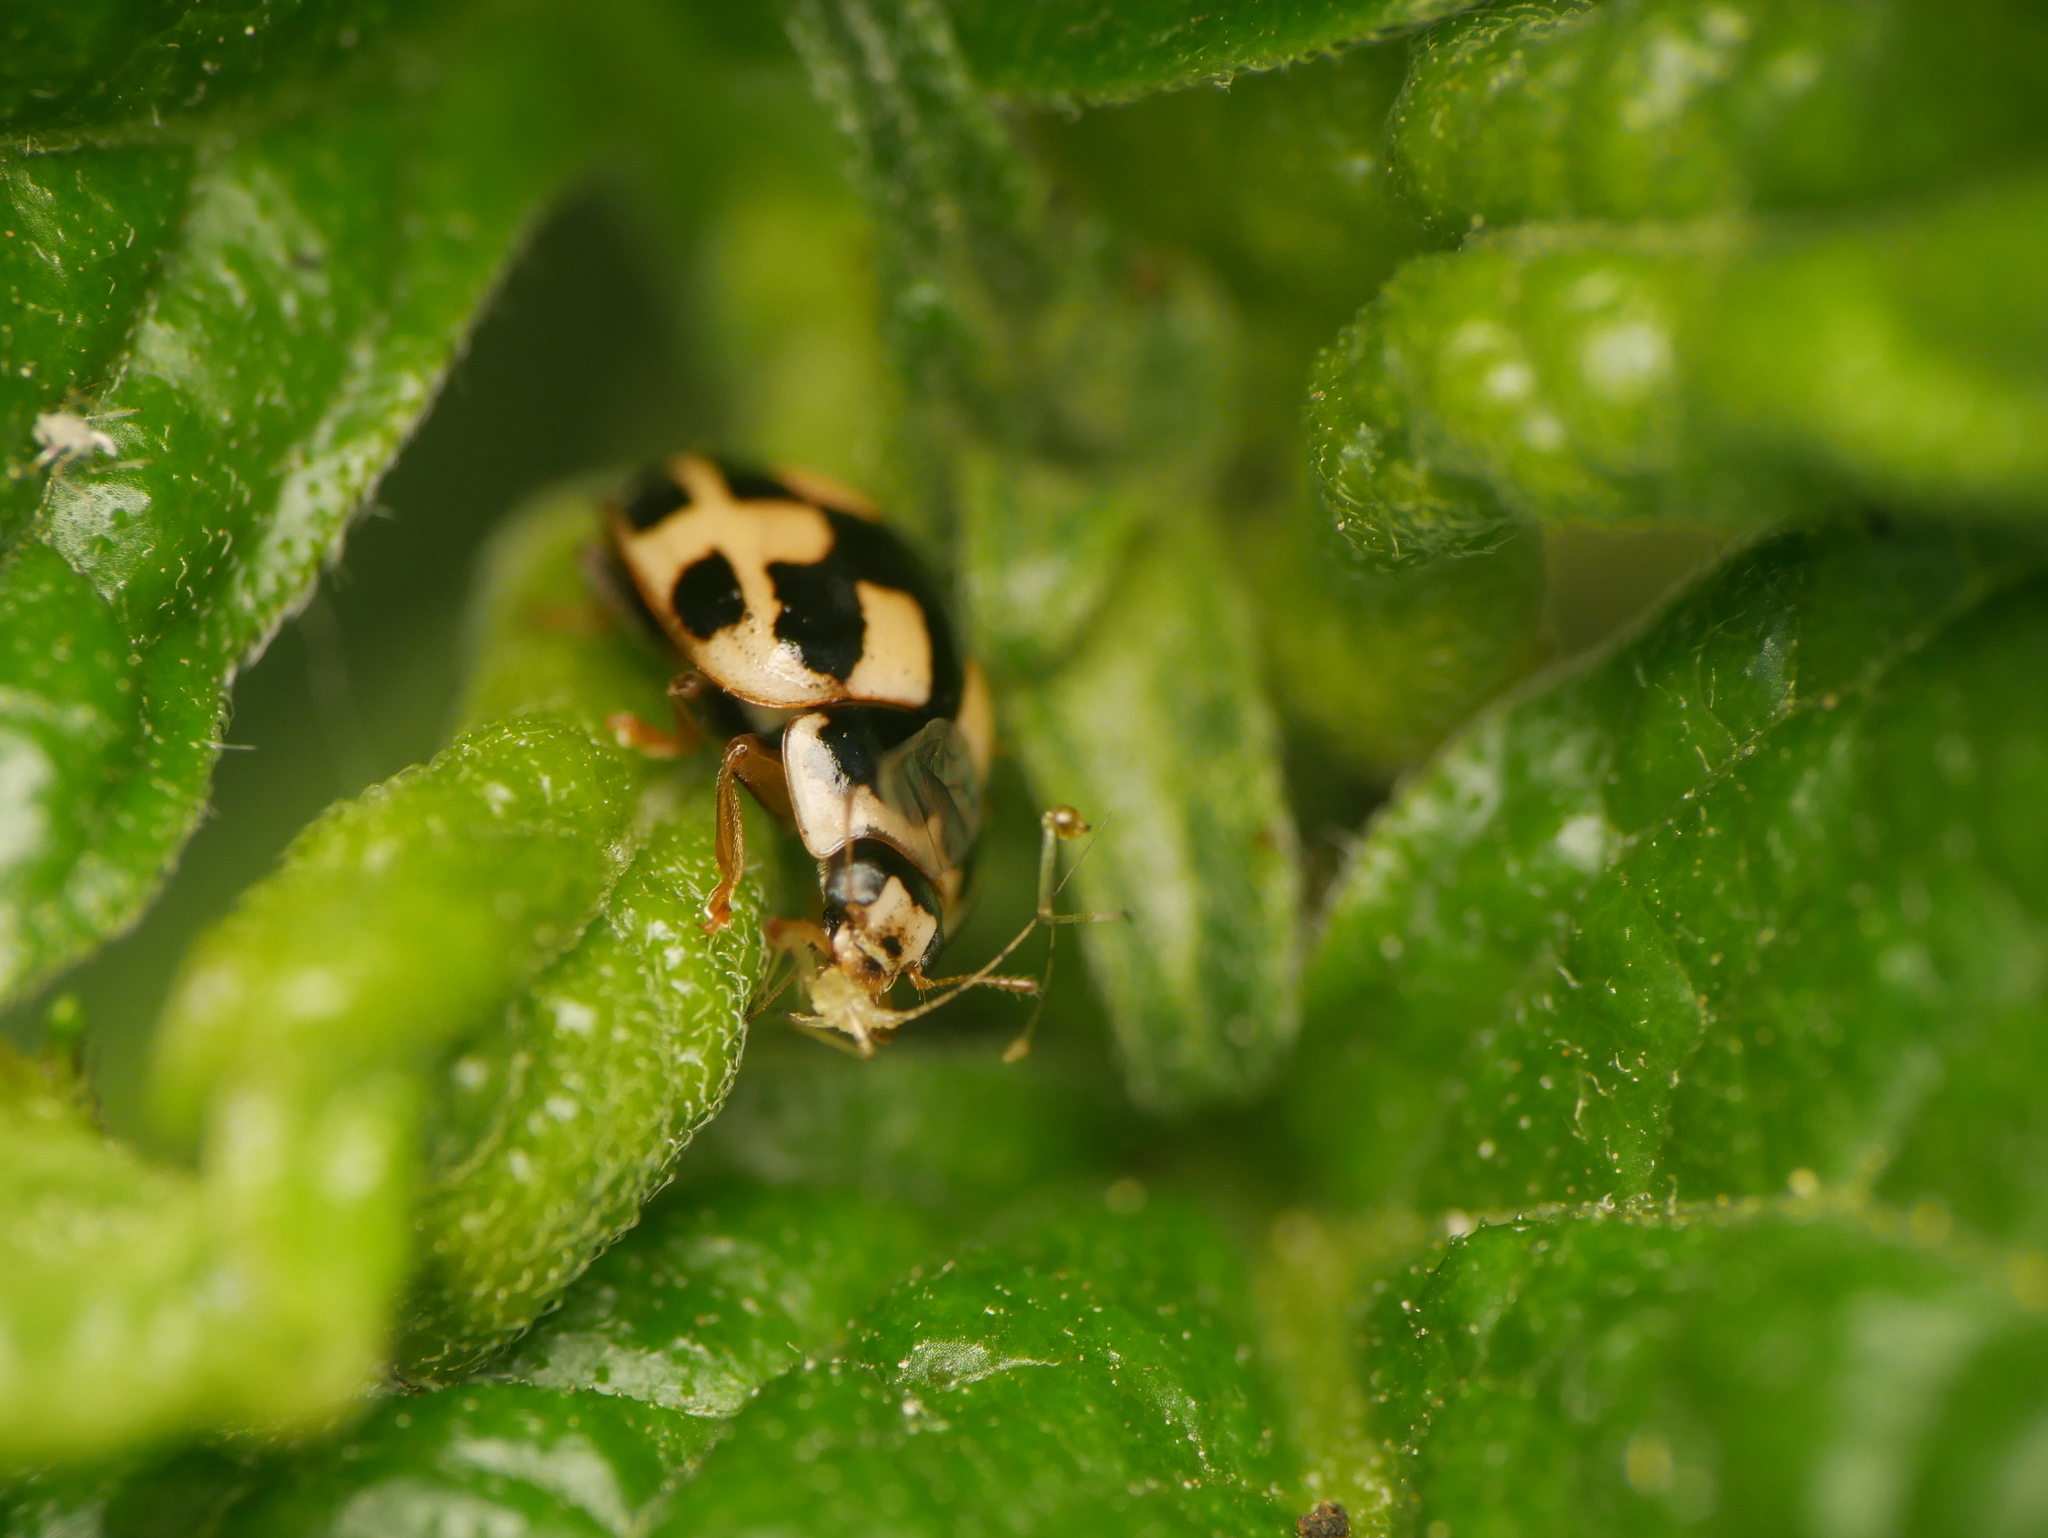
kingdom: Animalia
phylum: Arthropoda
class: Insecta
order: Coleoptera
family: Coccinellidae
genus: Propylaea
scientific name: Propylaea quatuordecimpunctata
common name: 14-spotted ladybird beetle
